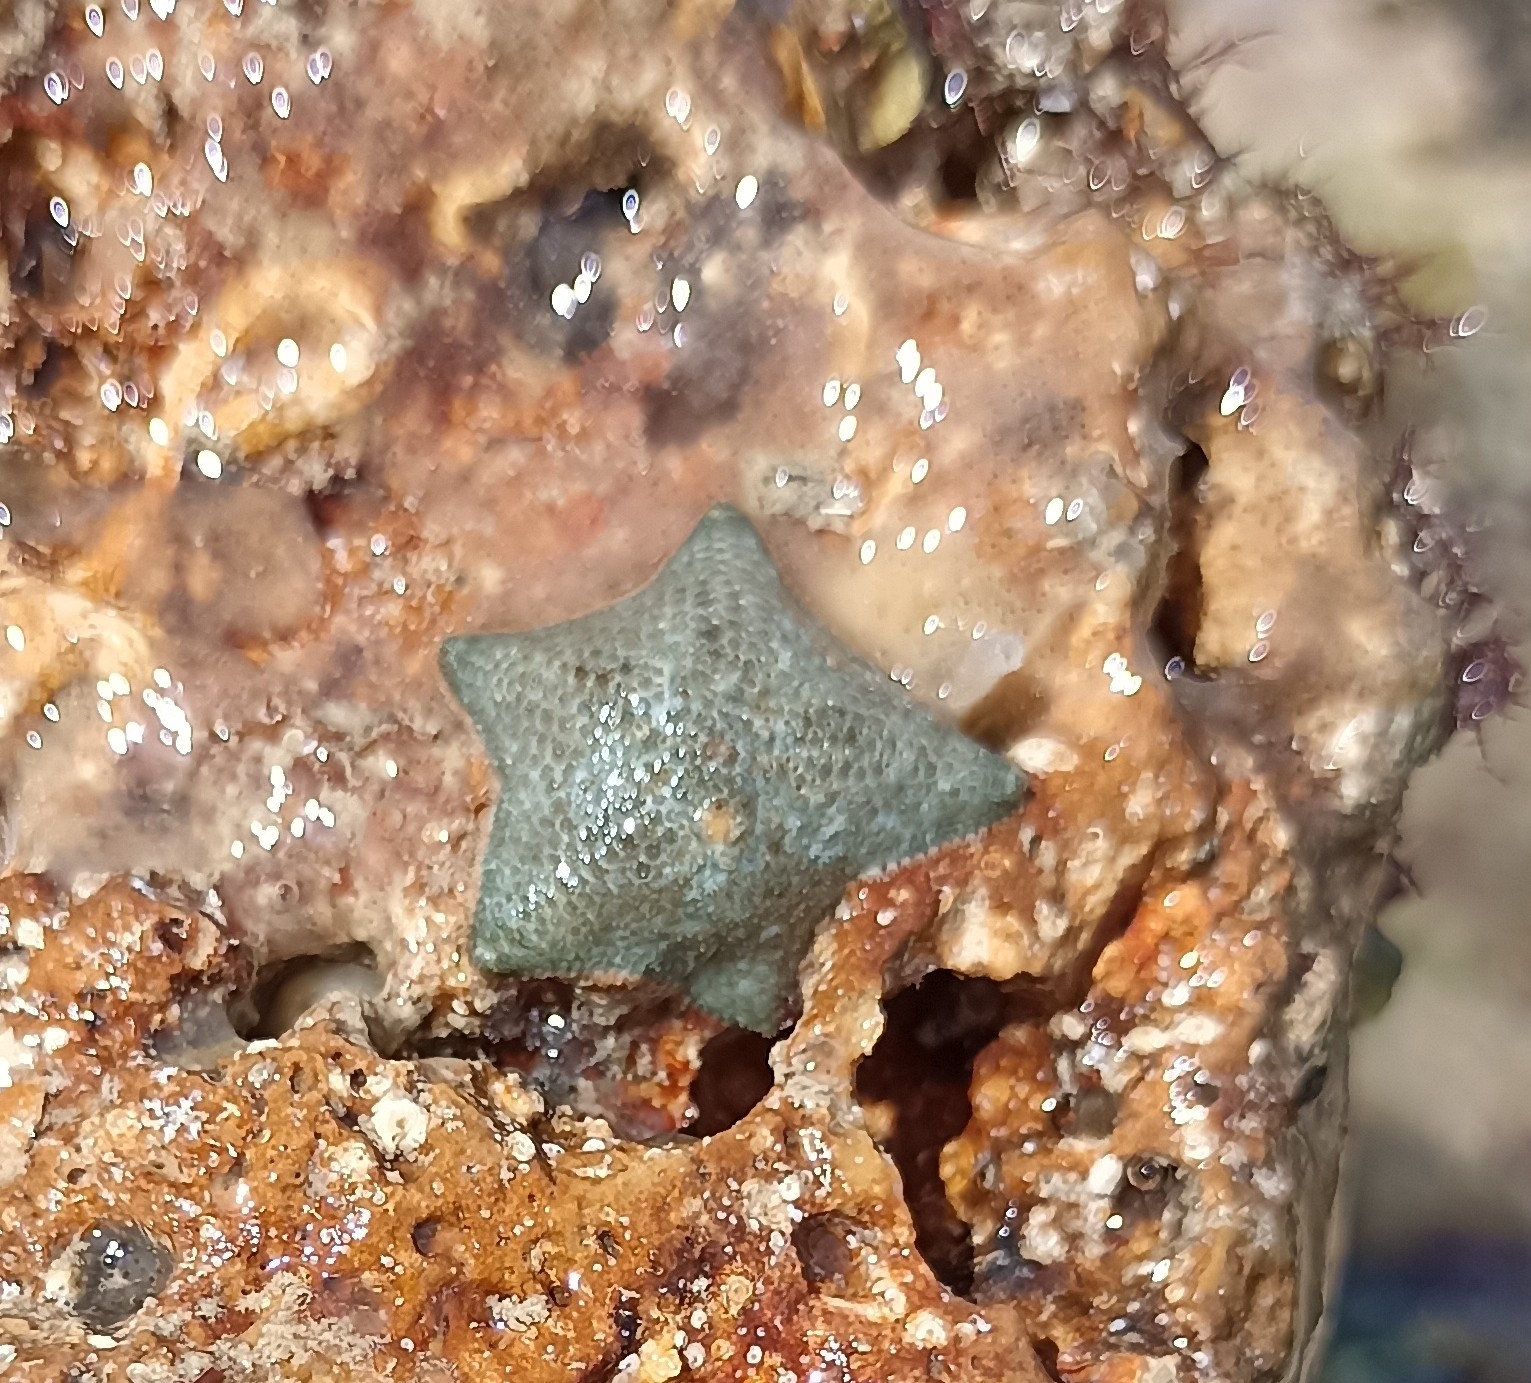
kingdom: Animalia
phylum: Echinodermata
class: Asteroidea
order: Valvatida
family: Asterinidae
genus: Asterina
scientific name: Asterina gibbosa
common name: Cushion star
